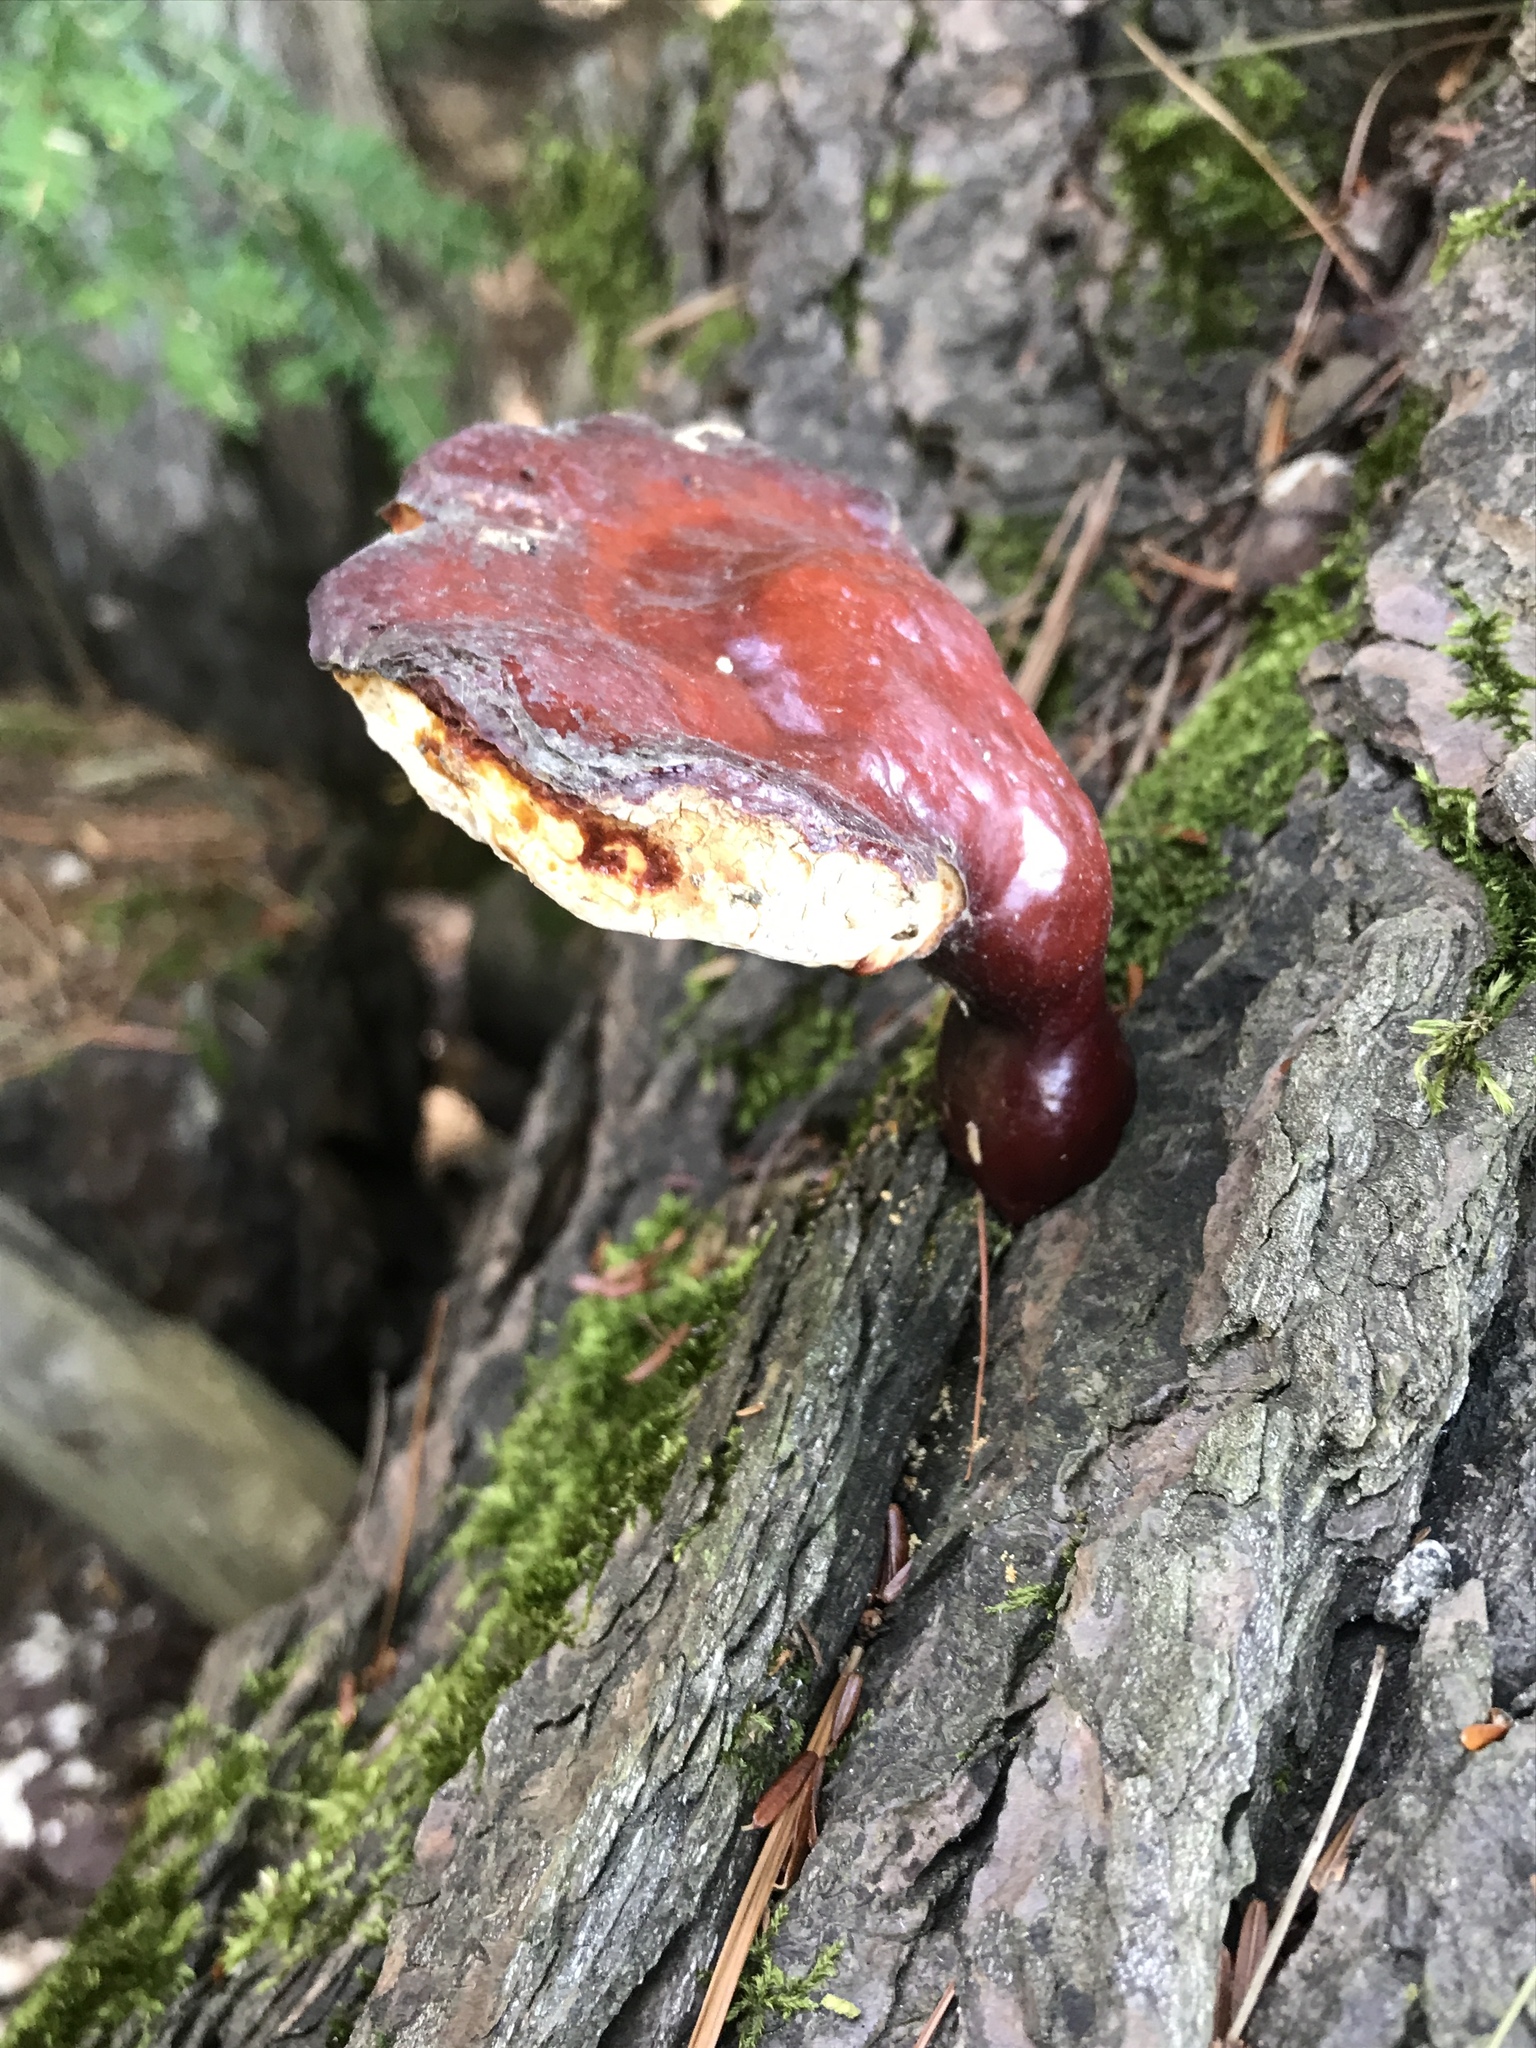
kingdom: Fungi
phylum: Basidiomycota
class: Agaricomycetes
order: Polyporales
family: Polyporaceae
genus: Ganoderma
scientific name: Ganoderma tsugae
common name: Hemlock varnish shelf
